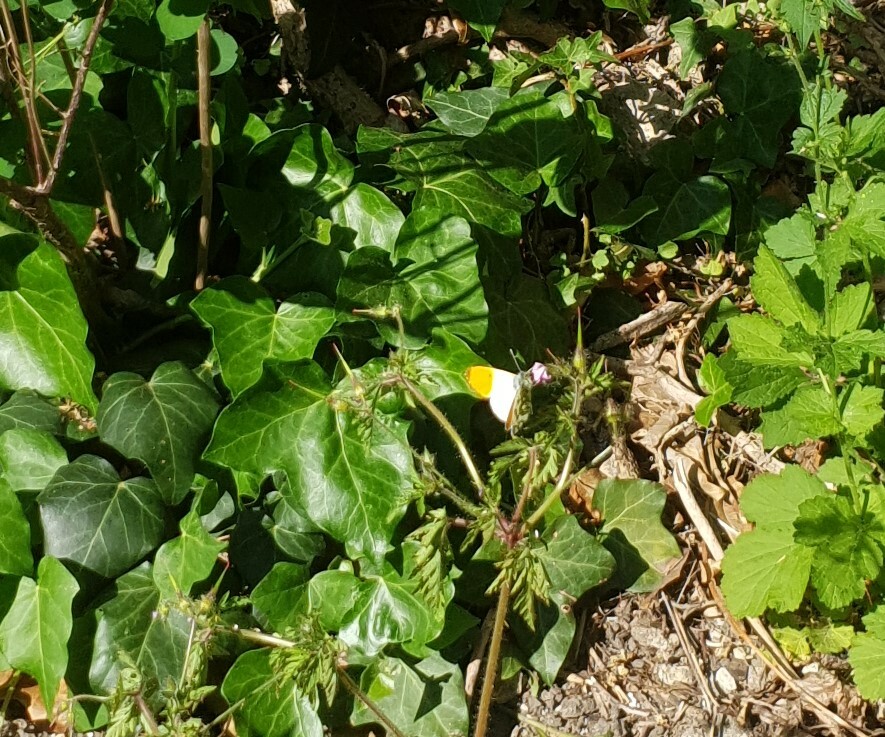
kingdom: Animalia
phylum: Arthropoda
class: Insecta
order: Lepidoptera
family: Pieridae
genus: Anthocharis
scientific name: Anthocharis cardamines
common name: Orange-tip
